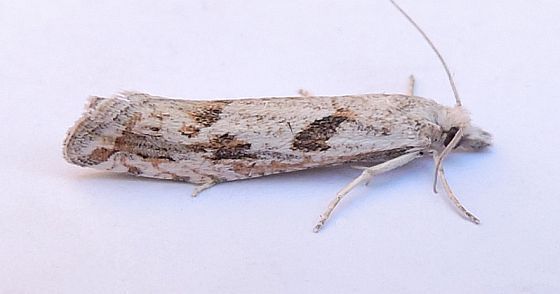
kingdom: Animalia
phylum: Arthropoda
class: Insecta
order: Lepidoptera
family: Tortricidae
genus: Pelochrista
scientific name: Pelochrista emaciatana
